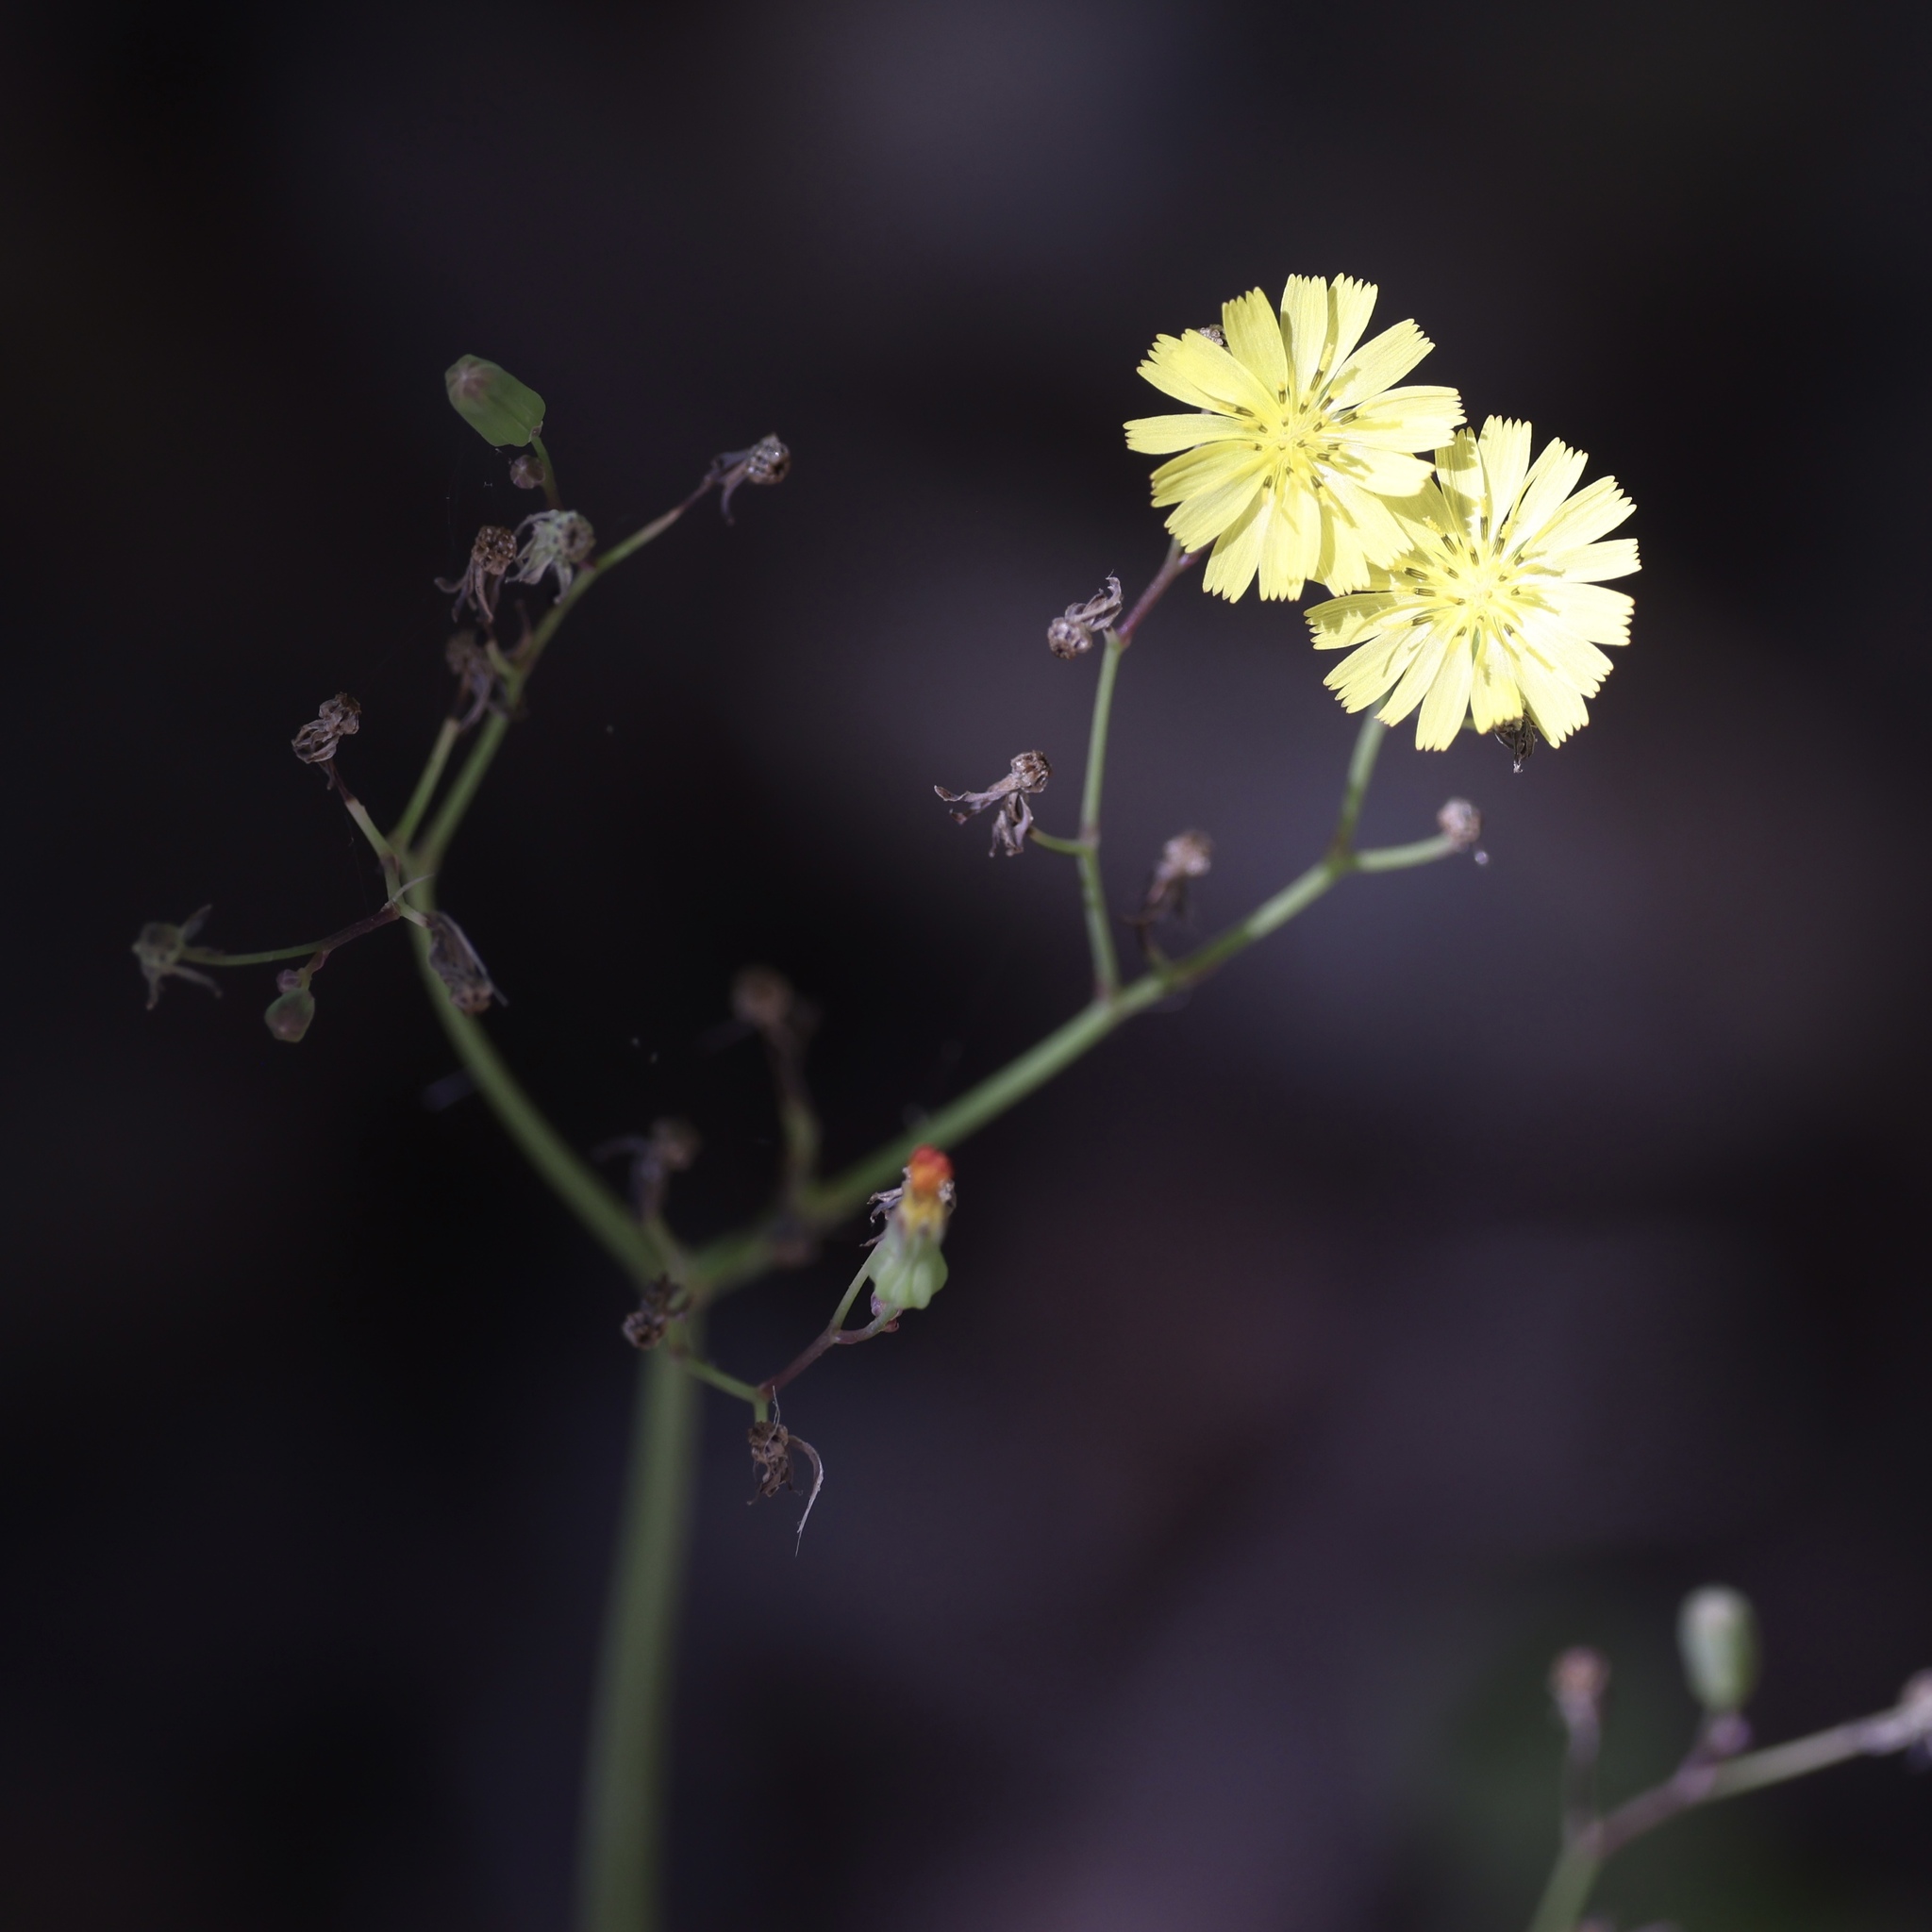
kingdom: Plantae
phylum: Tracheophyta
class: Magnoliopsida
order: Asterales
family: Asteraceae
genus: Youngia
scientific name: Youngia japonica
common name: Oriental false hawksbeard
